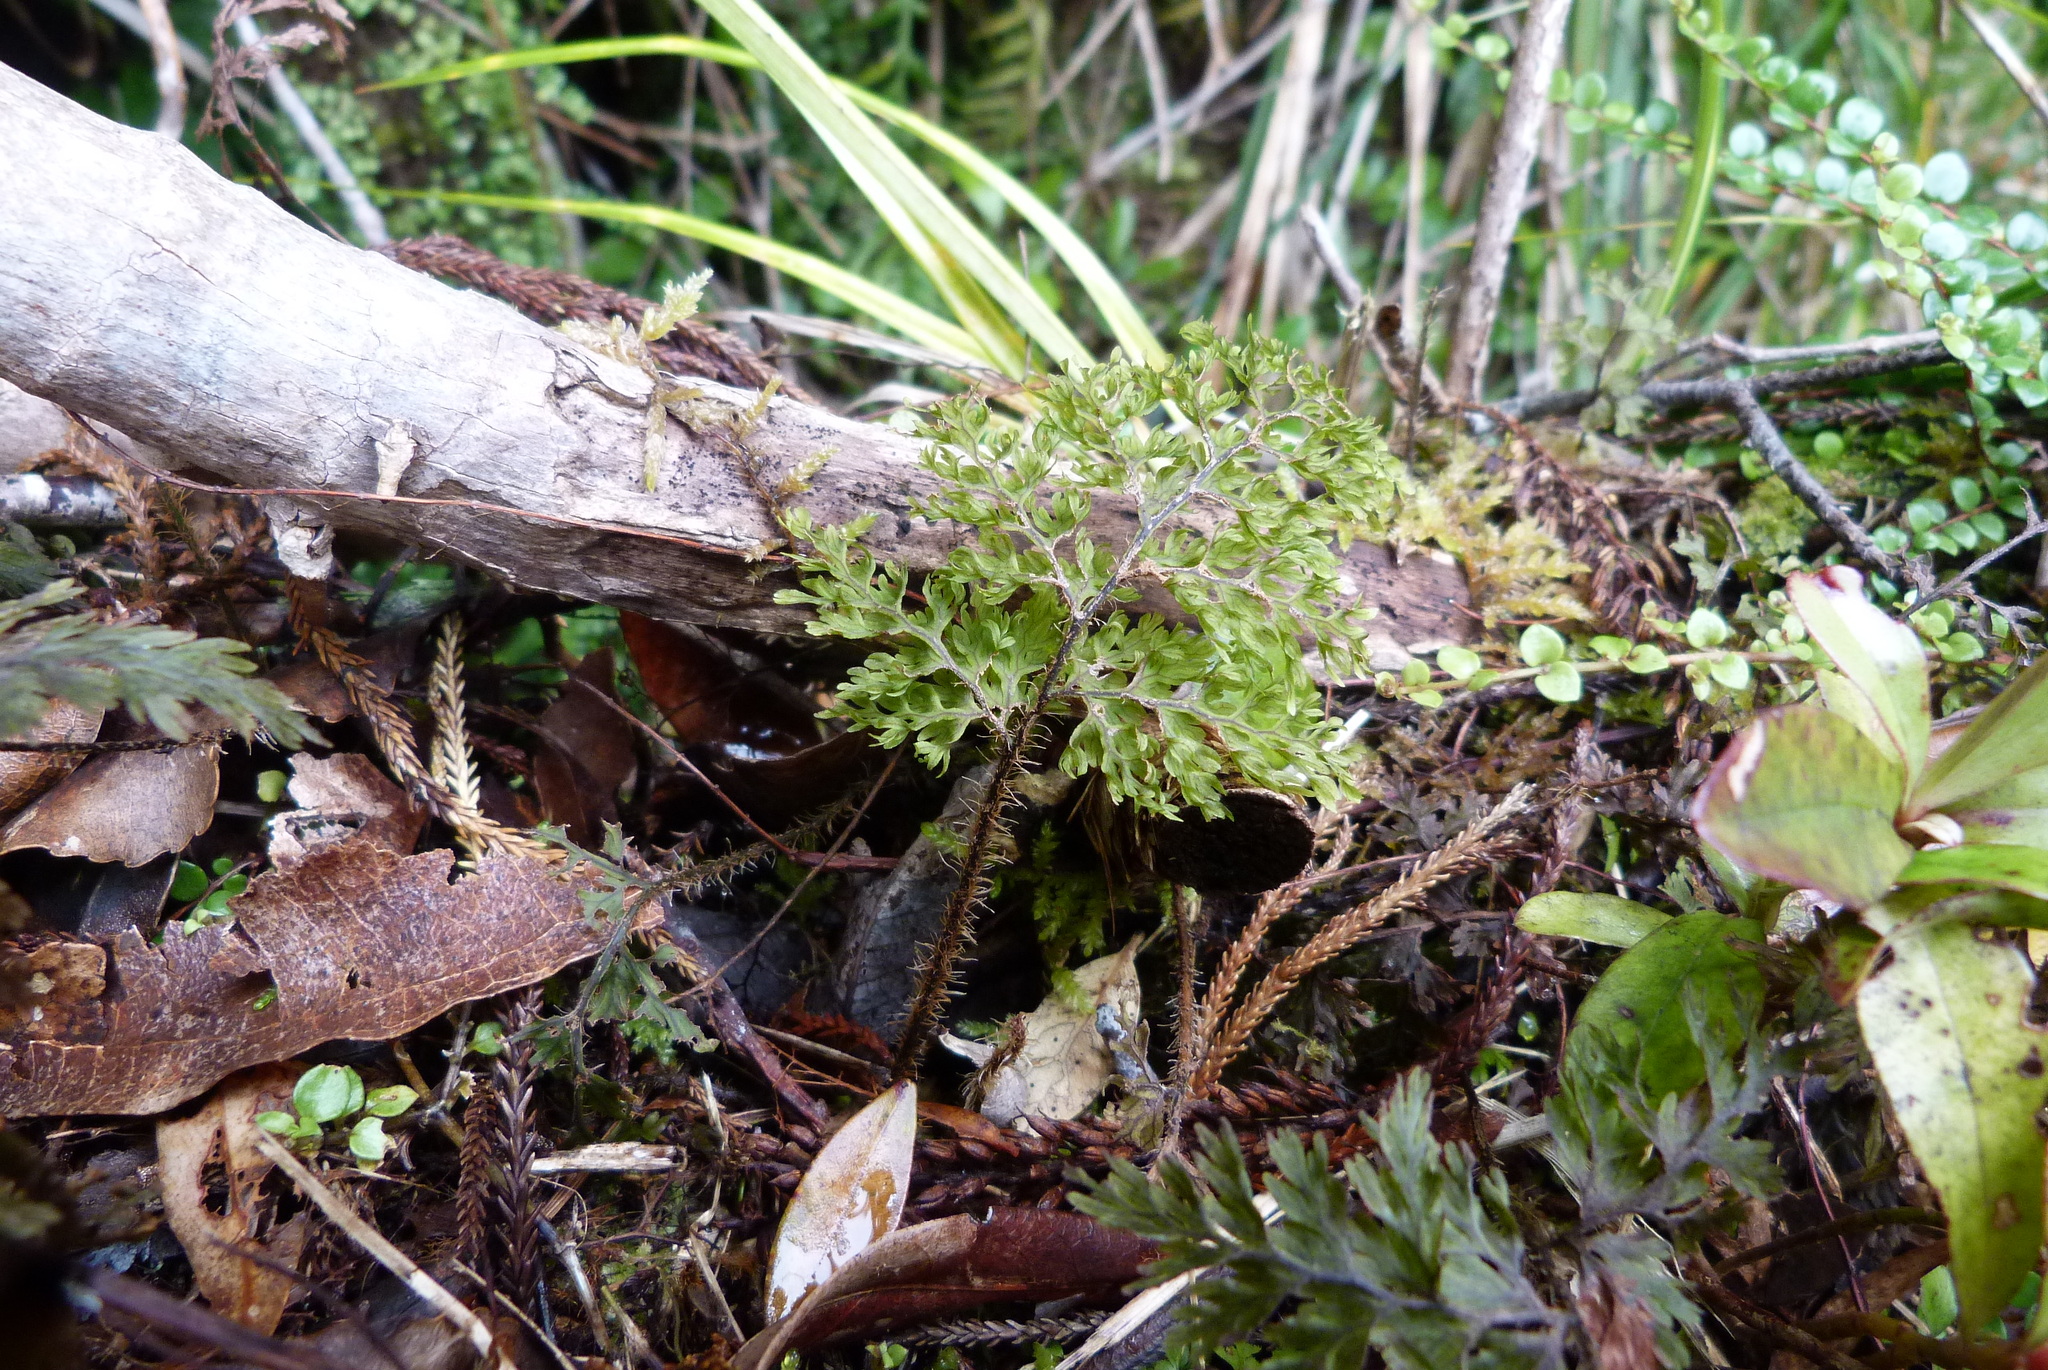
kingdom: Plantae
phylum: Tracheophyta
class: Polypodiopsida
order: Hymenophyllales
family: Hymenophyllaceae
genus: Hymenophyllum
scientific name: Hymenophyllum scabrum
